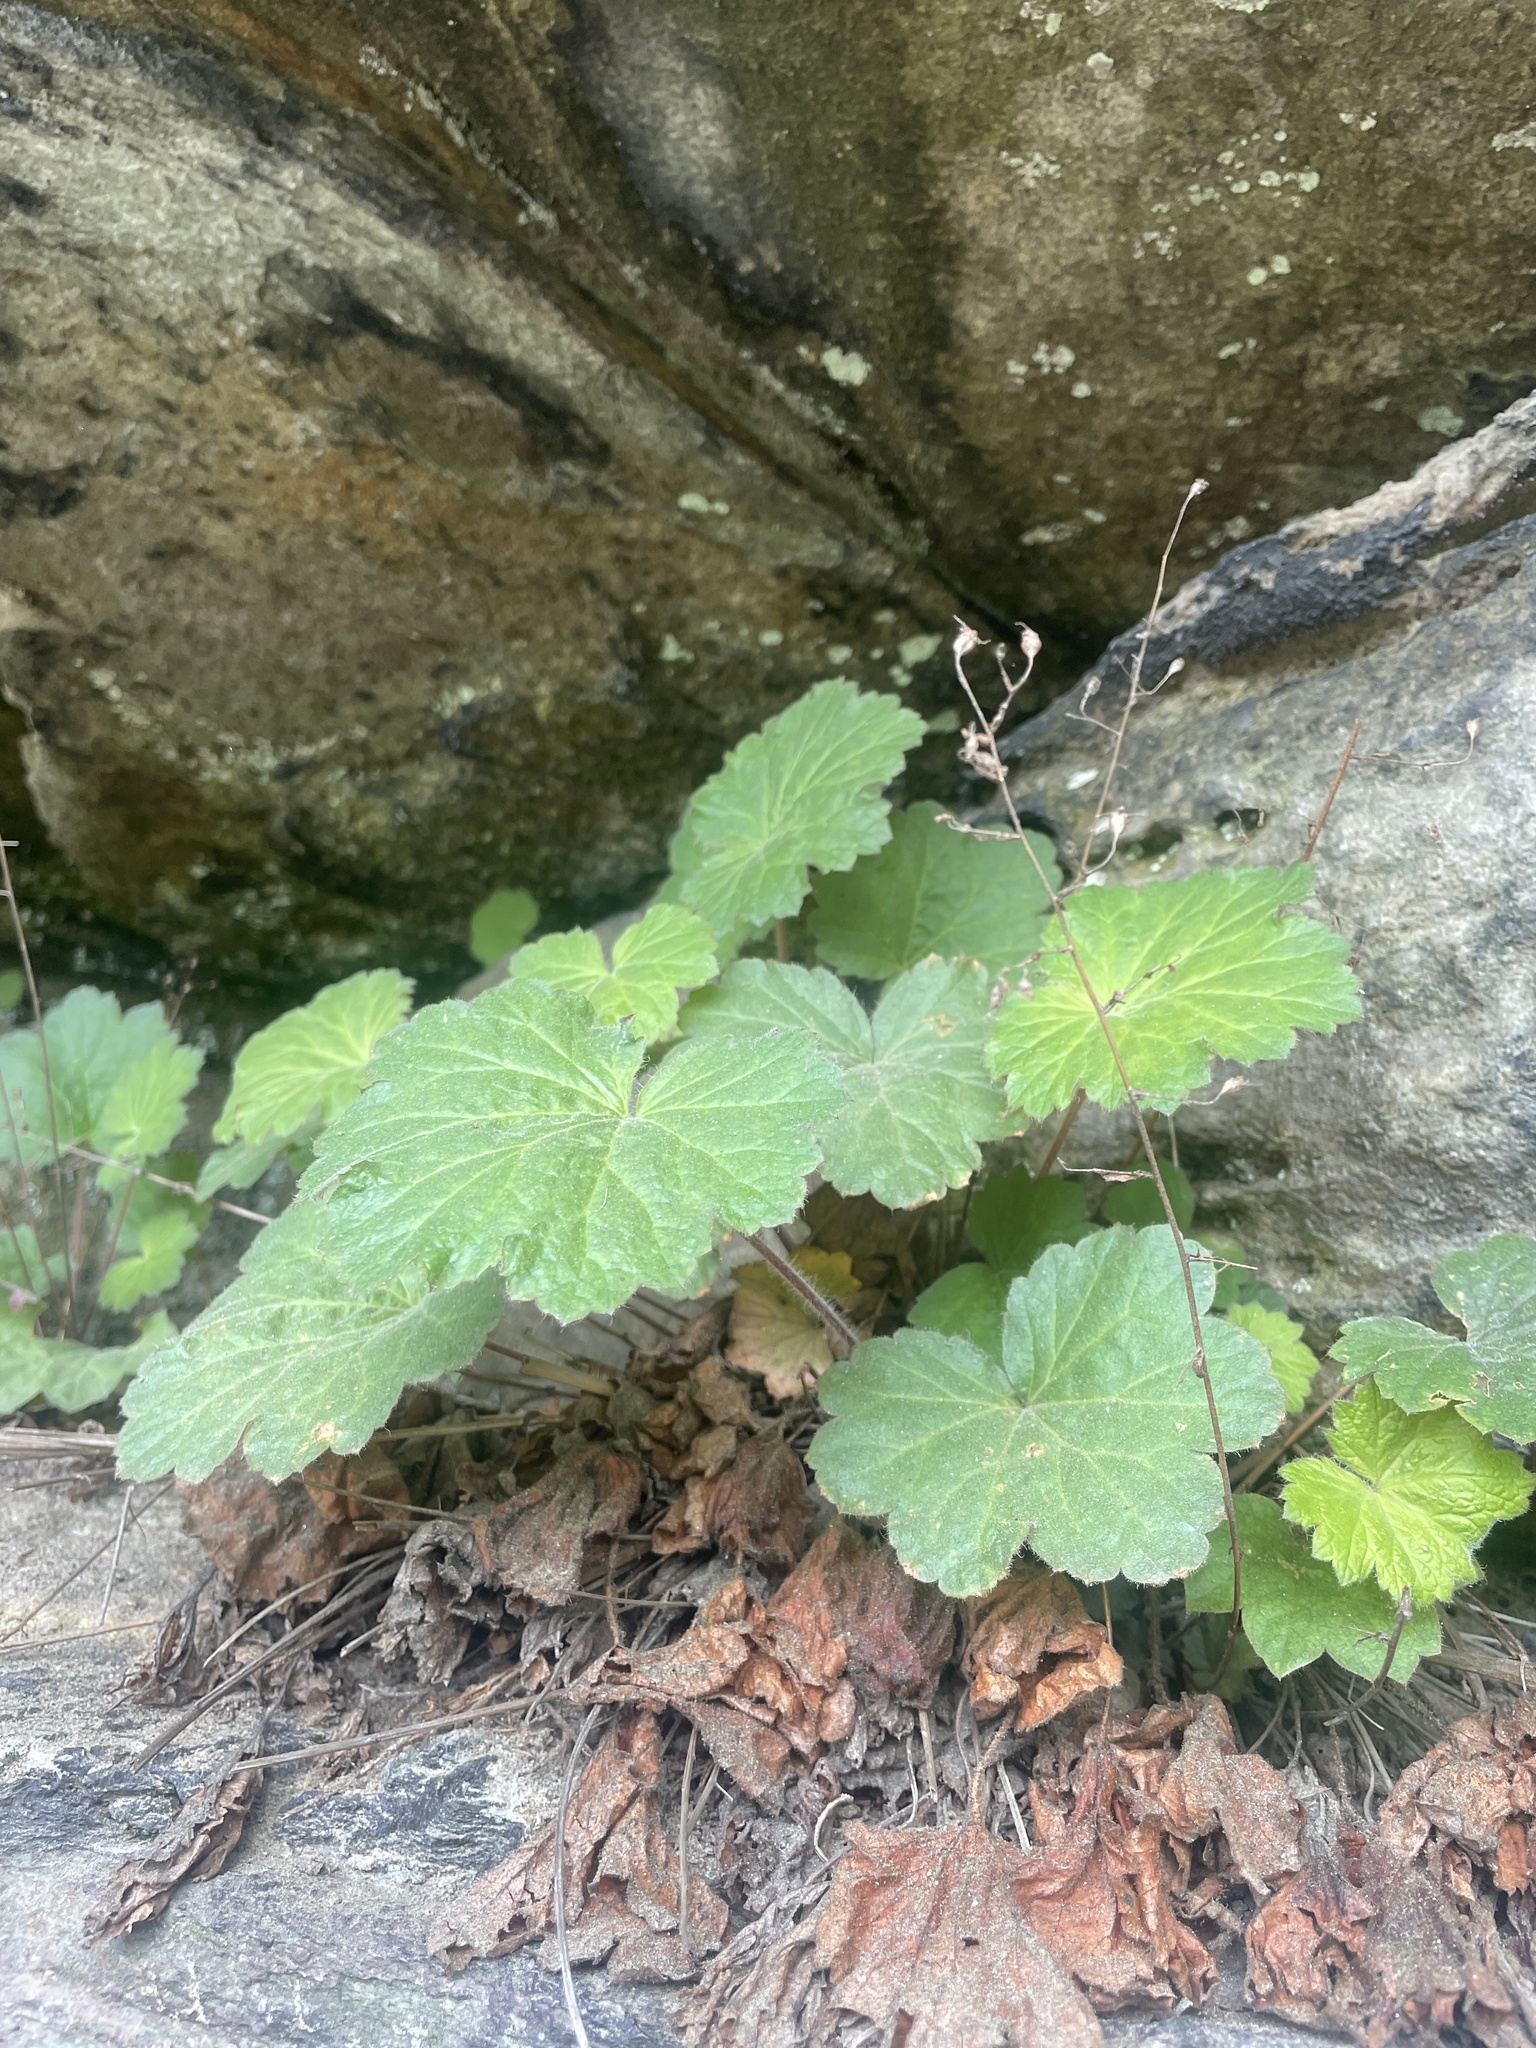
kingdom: Plantae
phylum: Tracheophyta
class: Magnoliopsida
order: Saxifragales
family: Saxifragaceae
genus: Heuchera
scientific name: Heuchera parviflora
